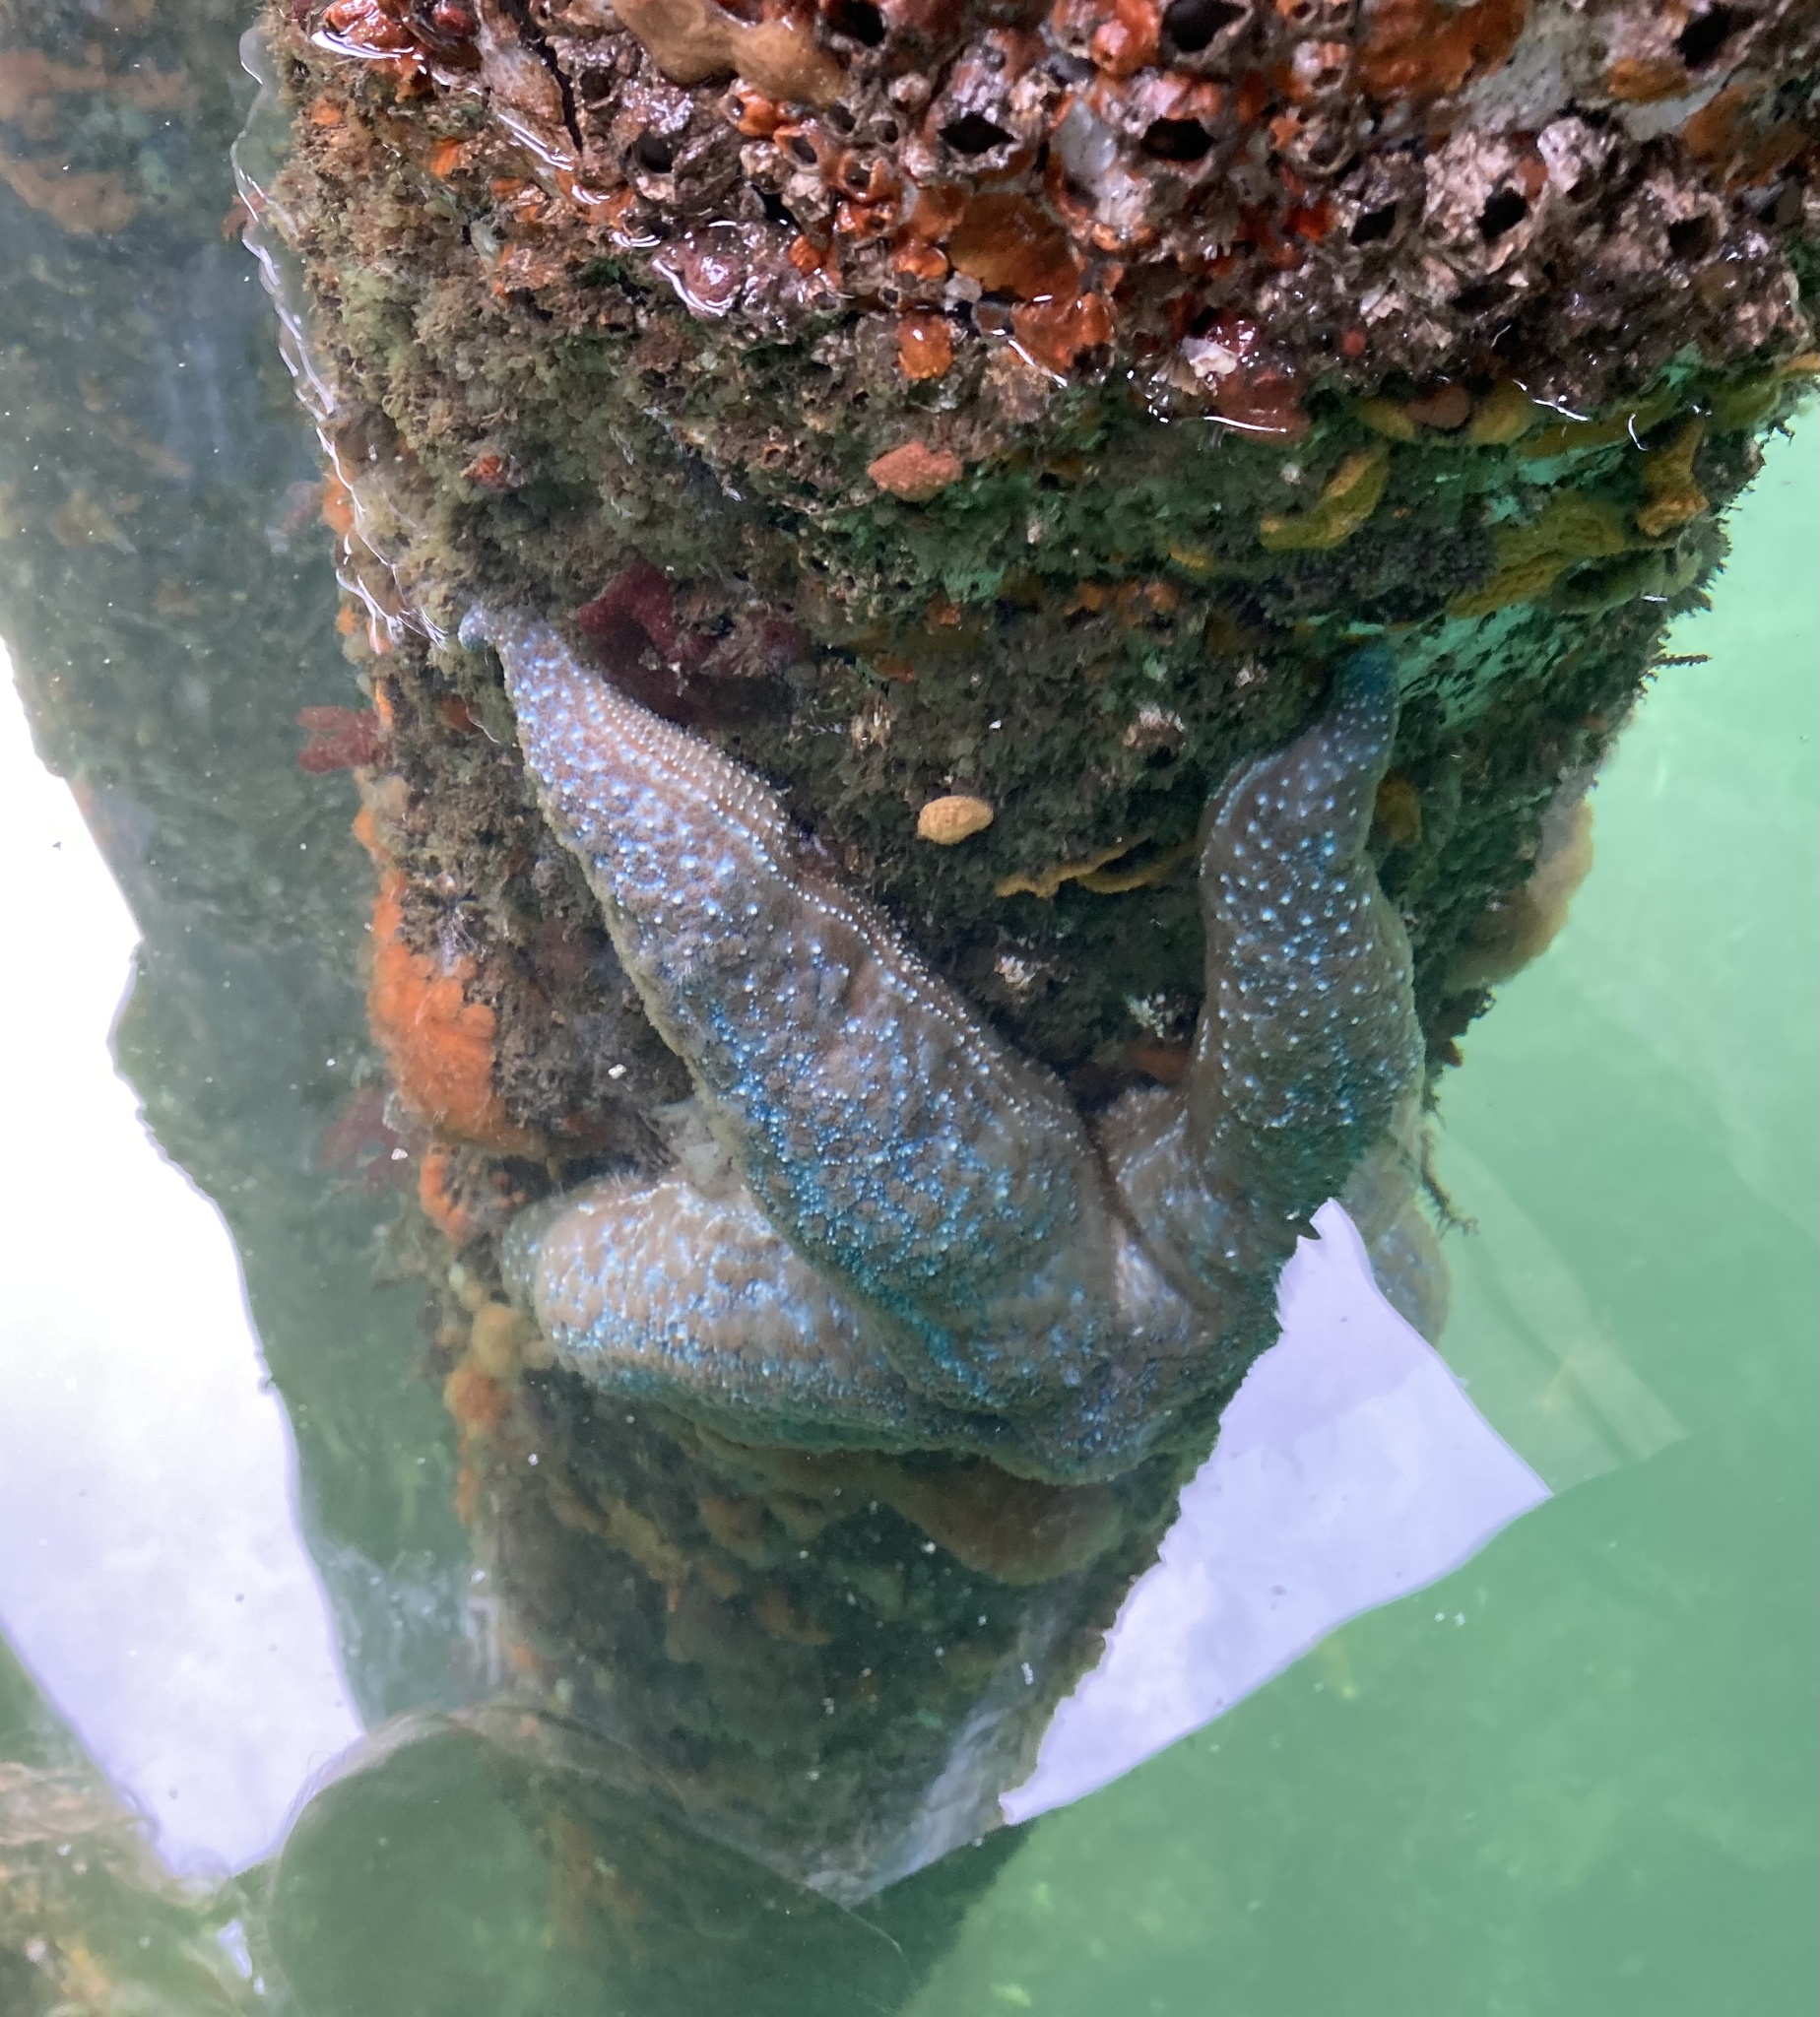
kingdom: Animalia
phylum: Echinodermata
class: Asteroidea
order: Forcipulatida
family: Asteriidae
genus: Evasterias
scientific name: Evasterias troschelii
